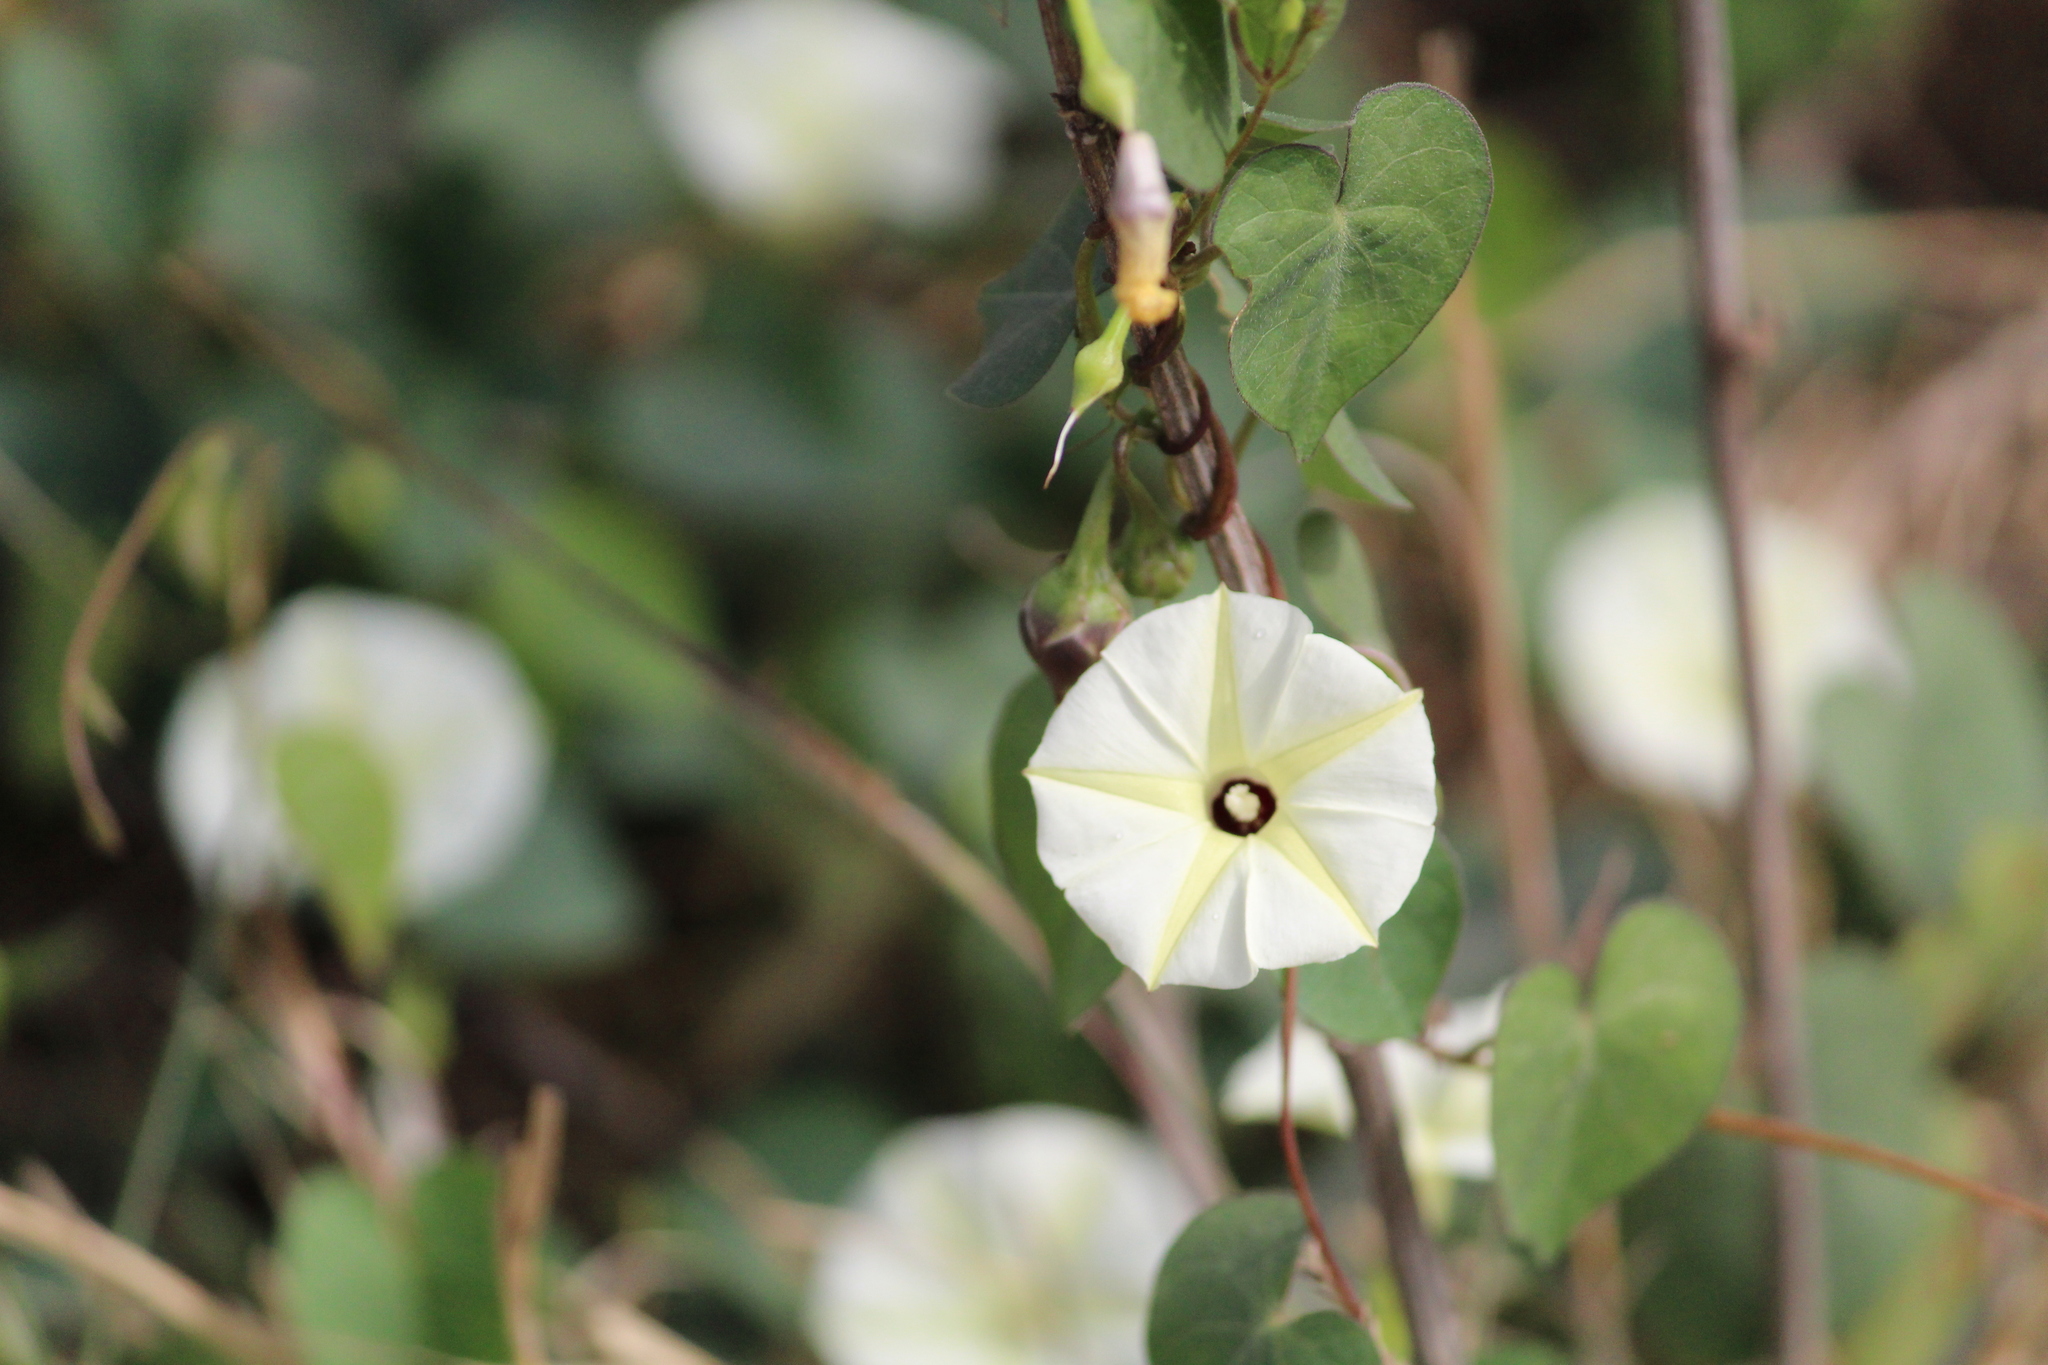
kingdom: Plantae
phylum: Tracheophyta
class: Magnoliopsida
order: Solanales
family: Convolvulaceae
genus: Ipomoea
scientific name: Ipomoea obscura
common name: Obscure morning-glory
